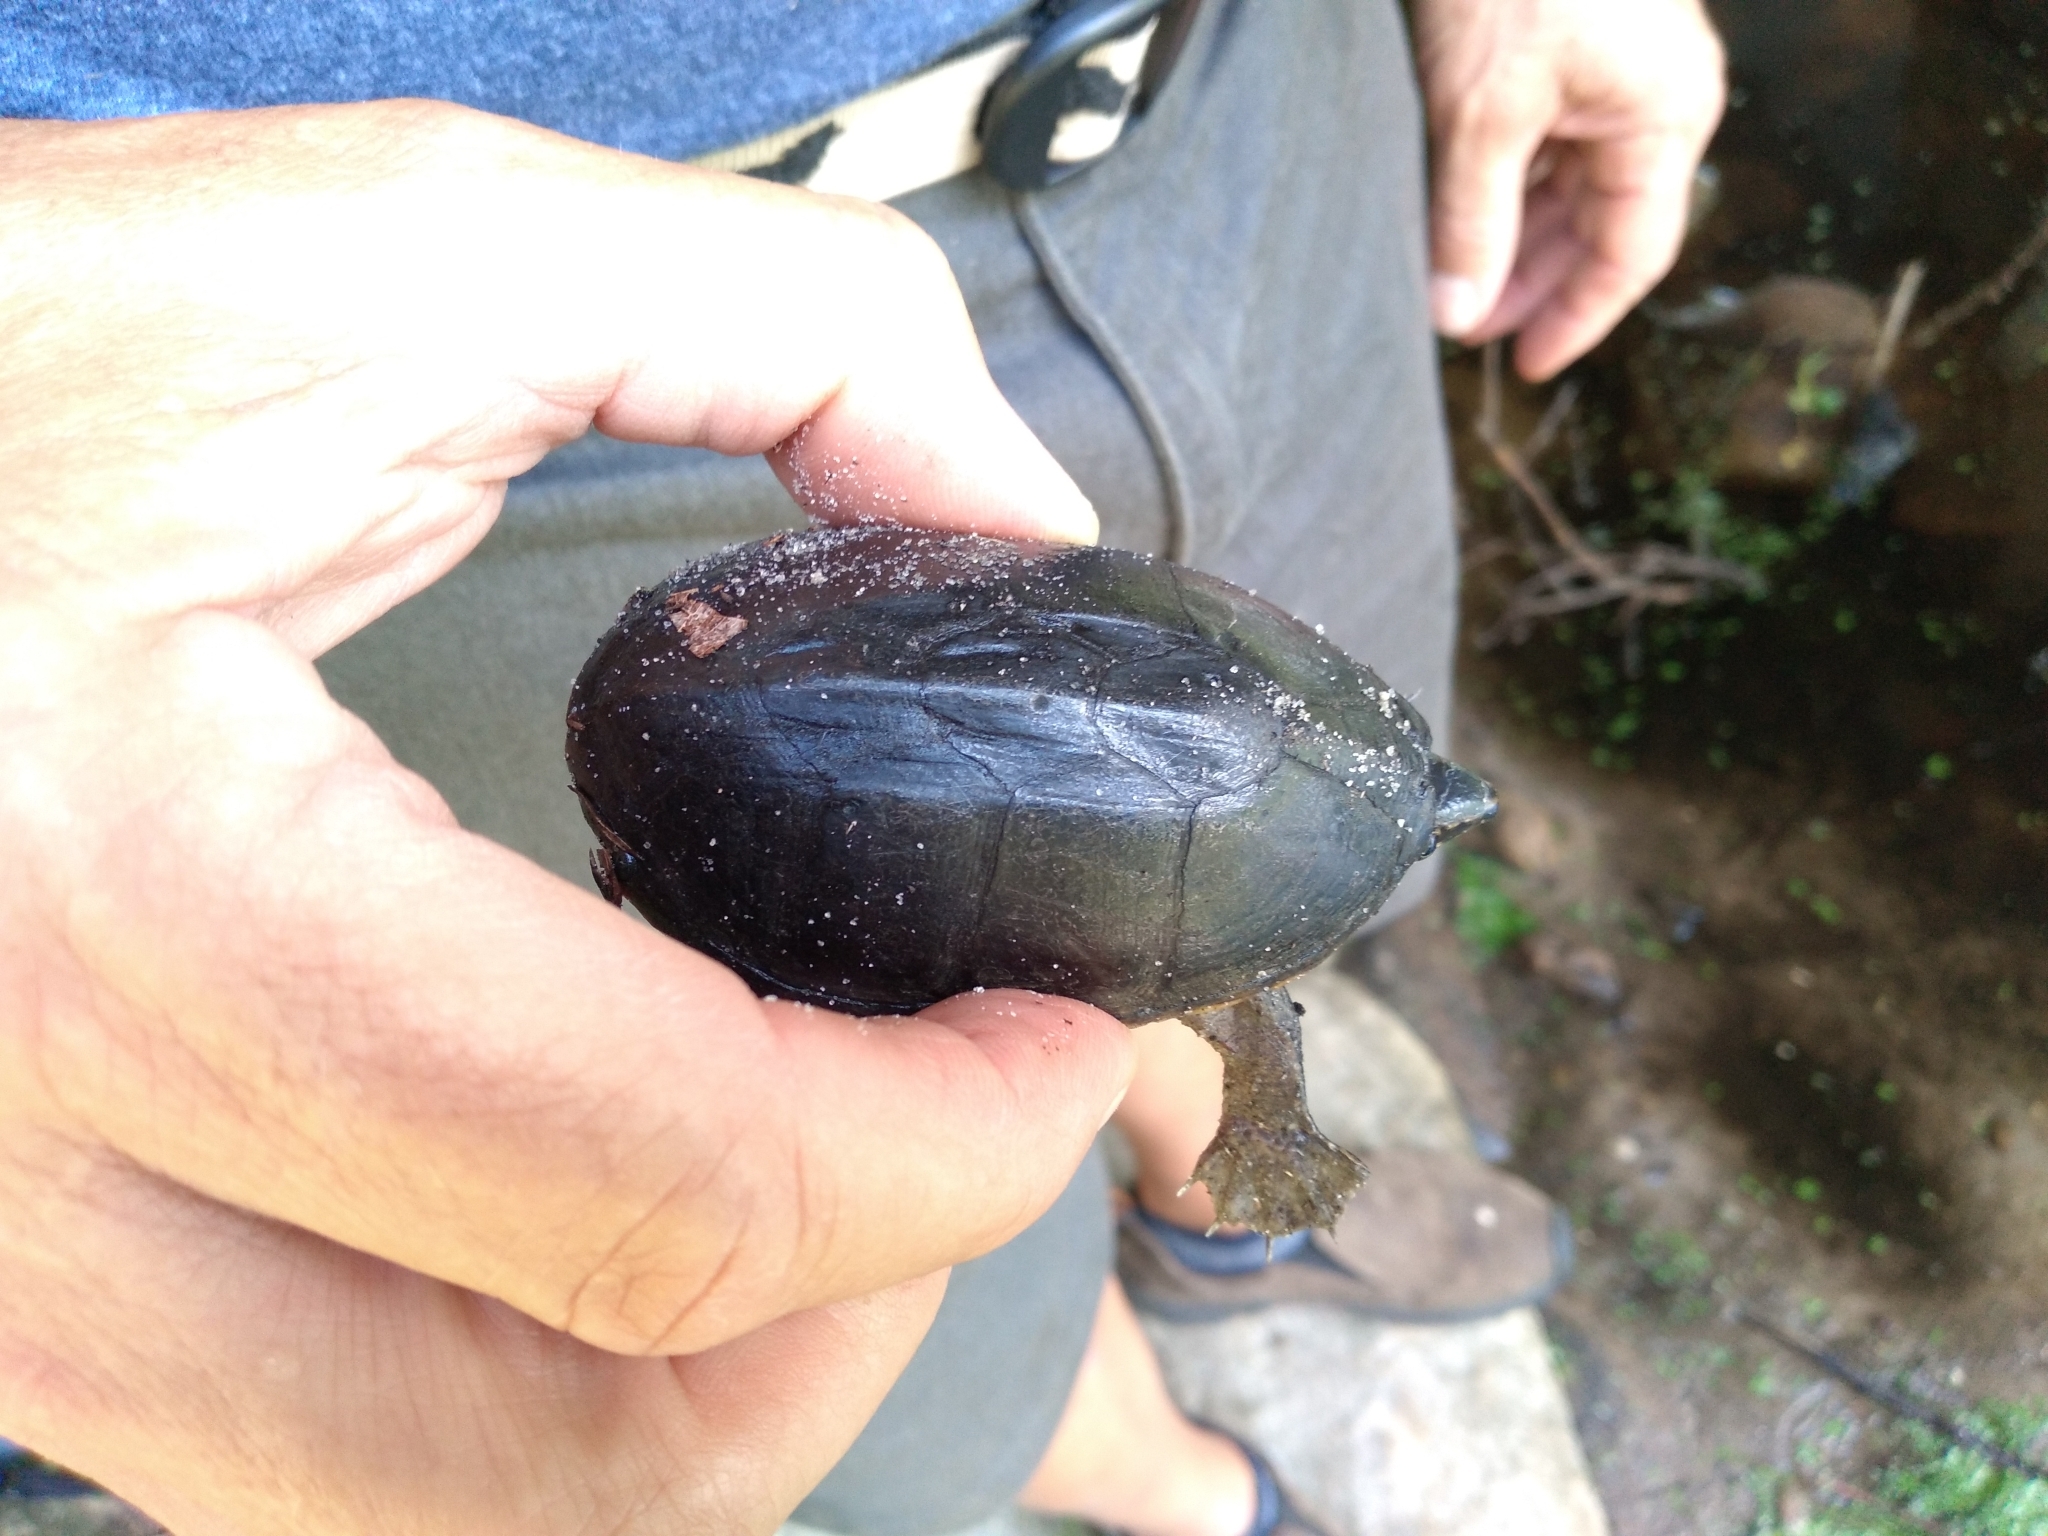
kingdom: Animalia
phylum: Chordata
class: Testudines
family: Kinosternidae
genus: Sternotherus
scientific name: Sternotherus odoratus
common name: Common musk turtle
